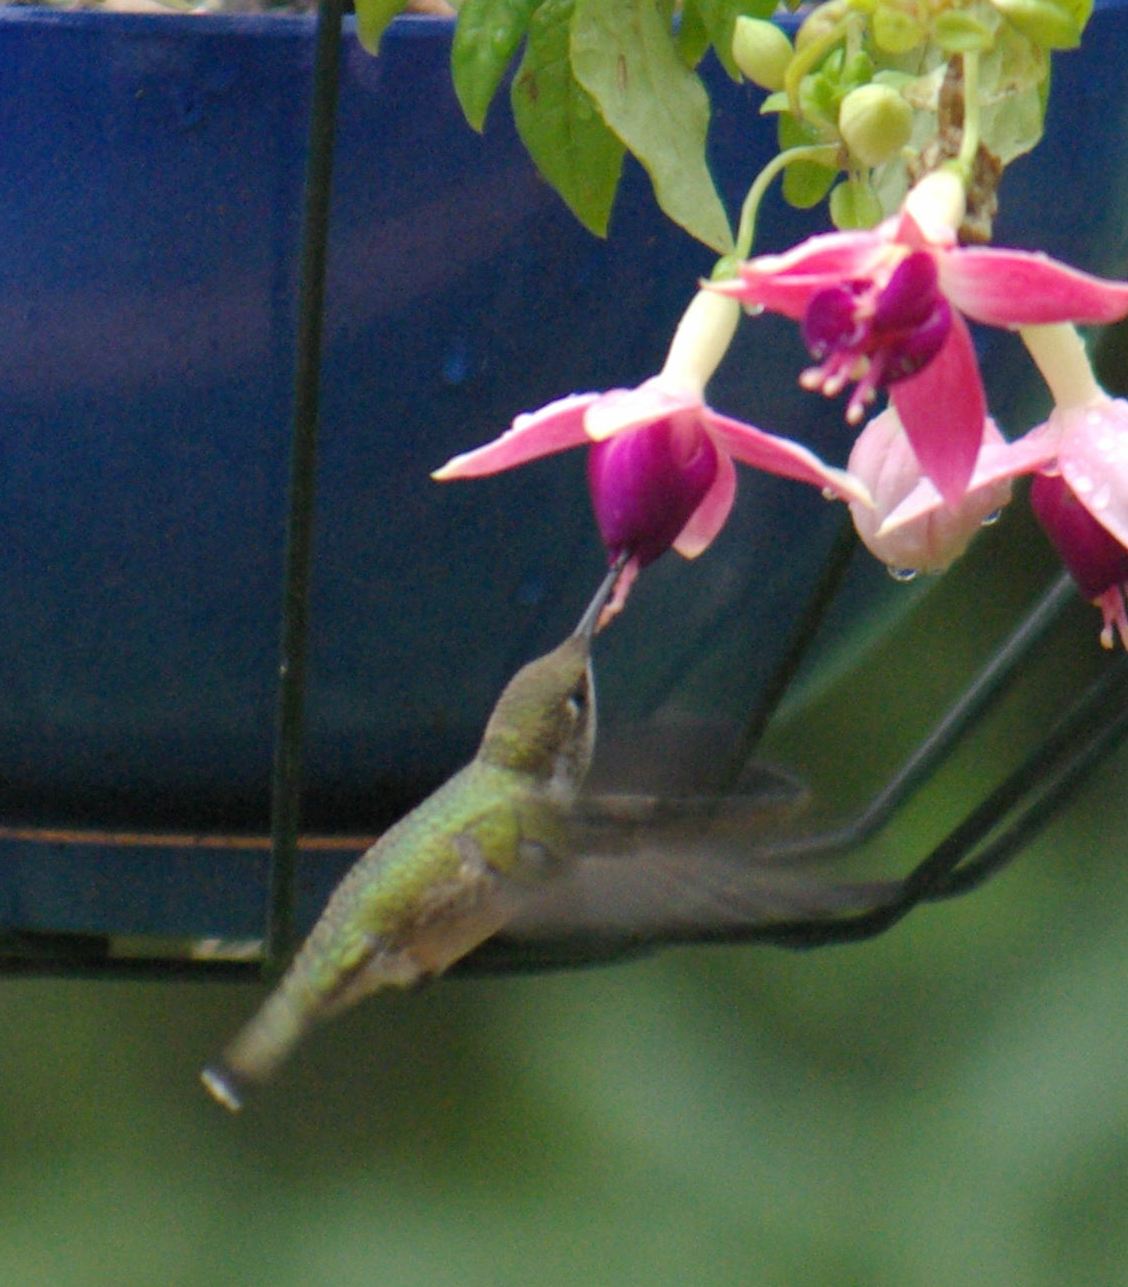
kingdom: Animalia
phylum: Chordata
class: Aves
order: Apodiformes
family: Trochilidae
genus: Archilochus
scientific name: Archilochus colubris
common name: Ruby-throated hummingbird
